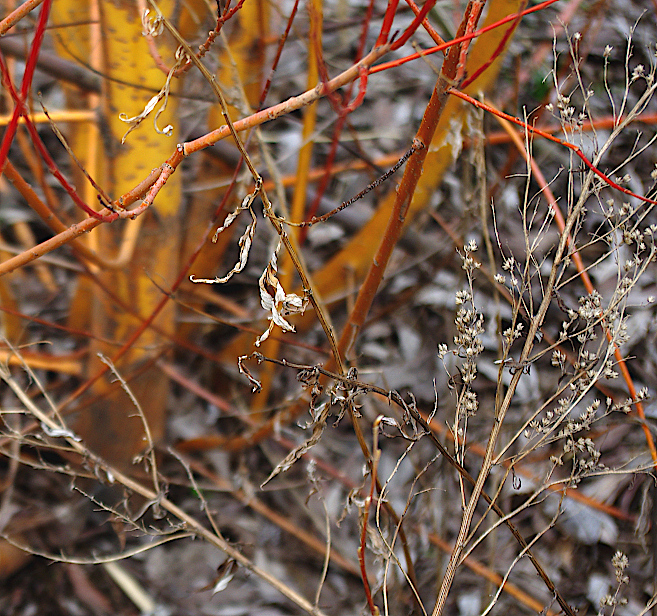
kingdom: Plantae
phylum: Tracheophyta
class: Magnoliopsida
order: Asterales
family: Asteraceae
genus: Artemisia
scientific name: Artemisia vulgaris
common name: Mugwort
